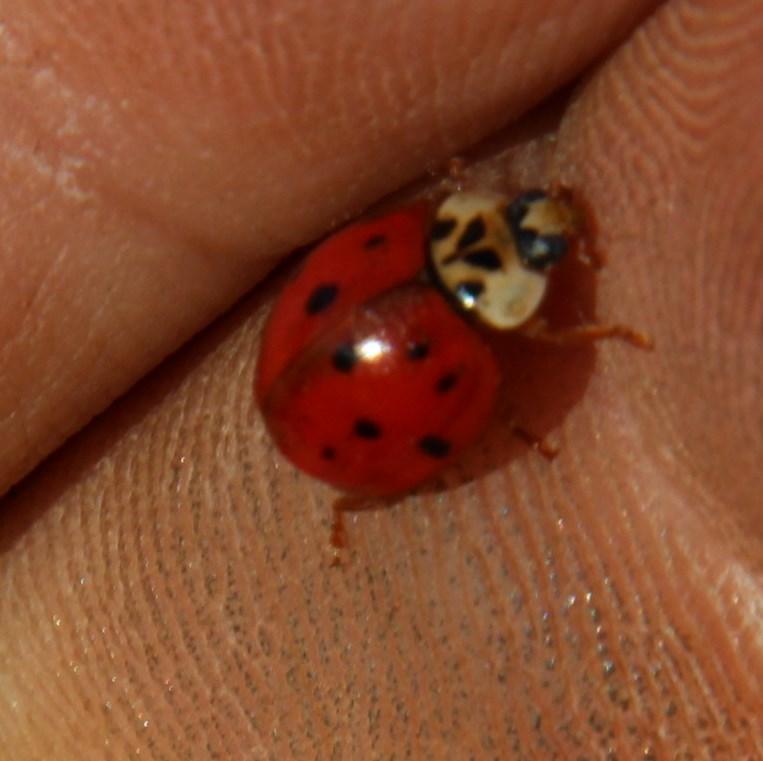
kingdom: Animalia
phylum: Arthropoda
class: Insecta
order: Coleoptera
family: Coccinellidae
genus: Harmonia
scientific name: Harmonia axyridis
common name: Harlequin ladybird
